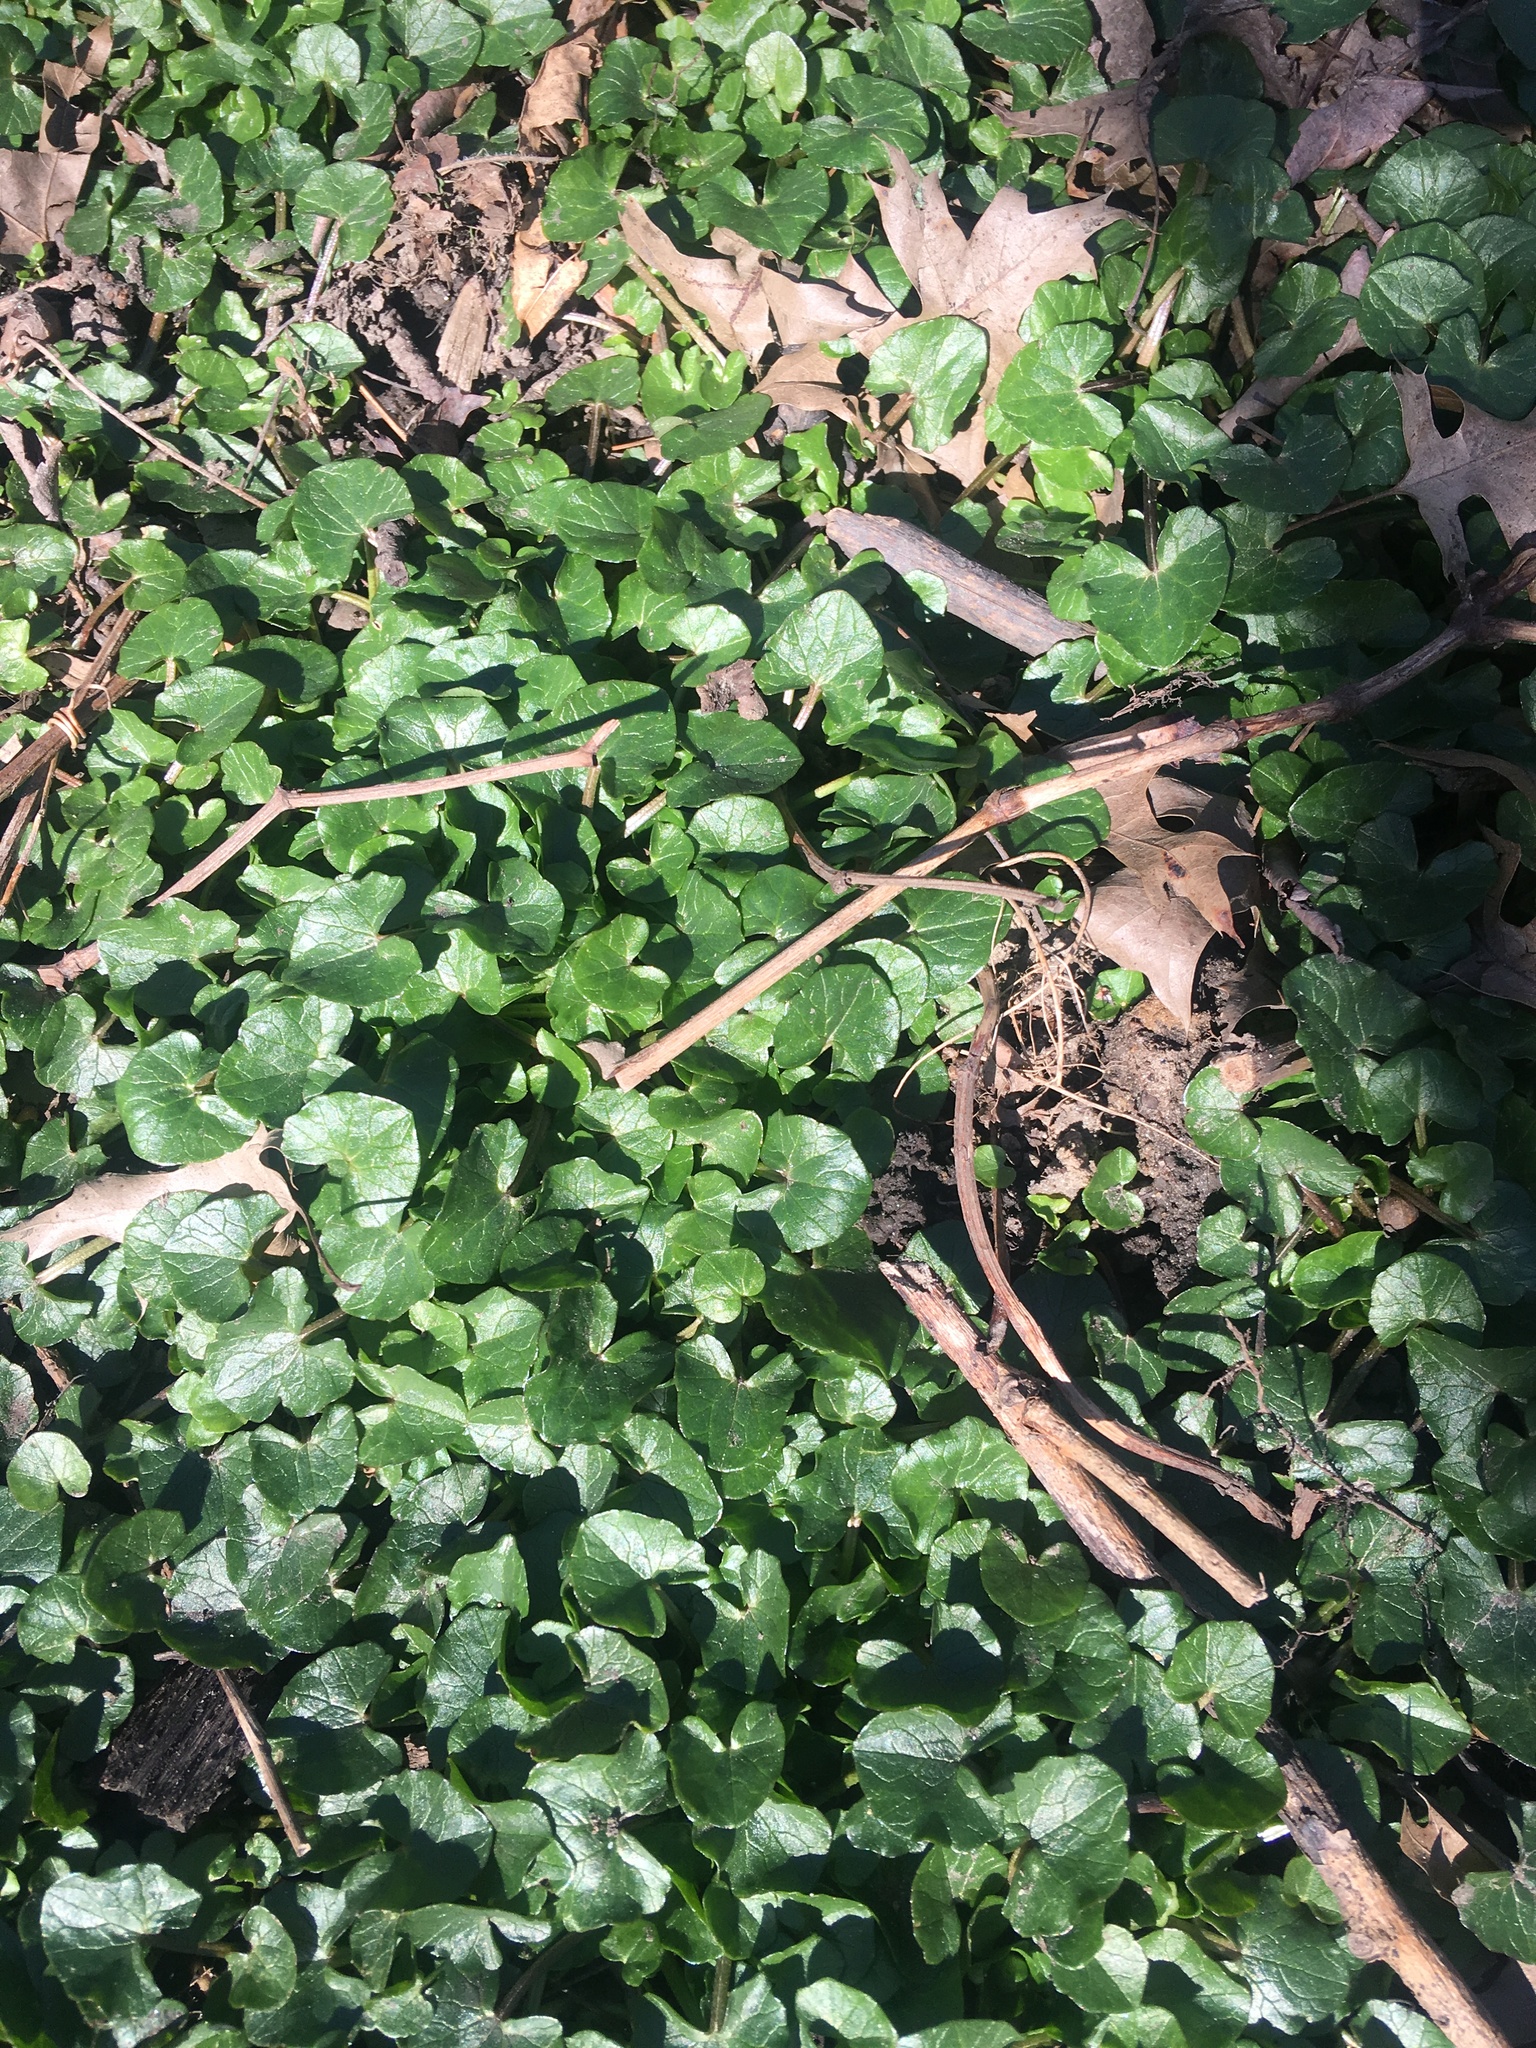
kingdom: Plantae
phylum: Tracheophyta
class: Magnoliopsida
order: Ranunculales
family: Ranunculaceae
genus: Ficaria
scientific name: Ficaria verna
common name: Lesser celandine
